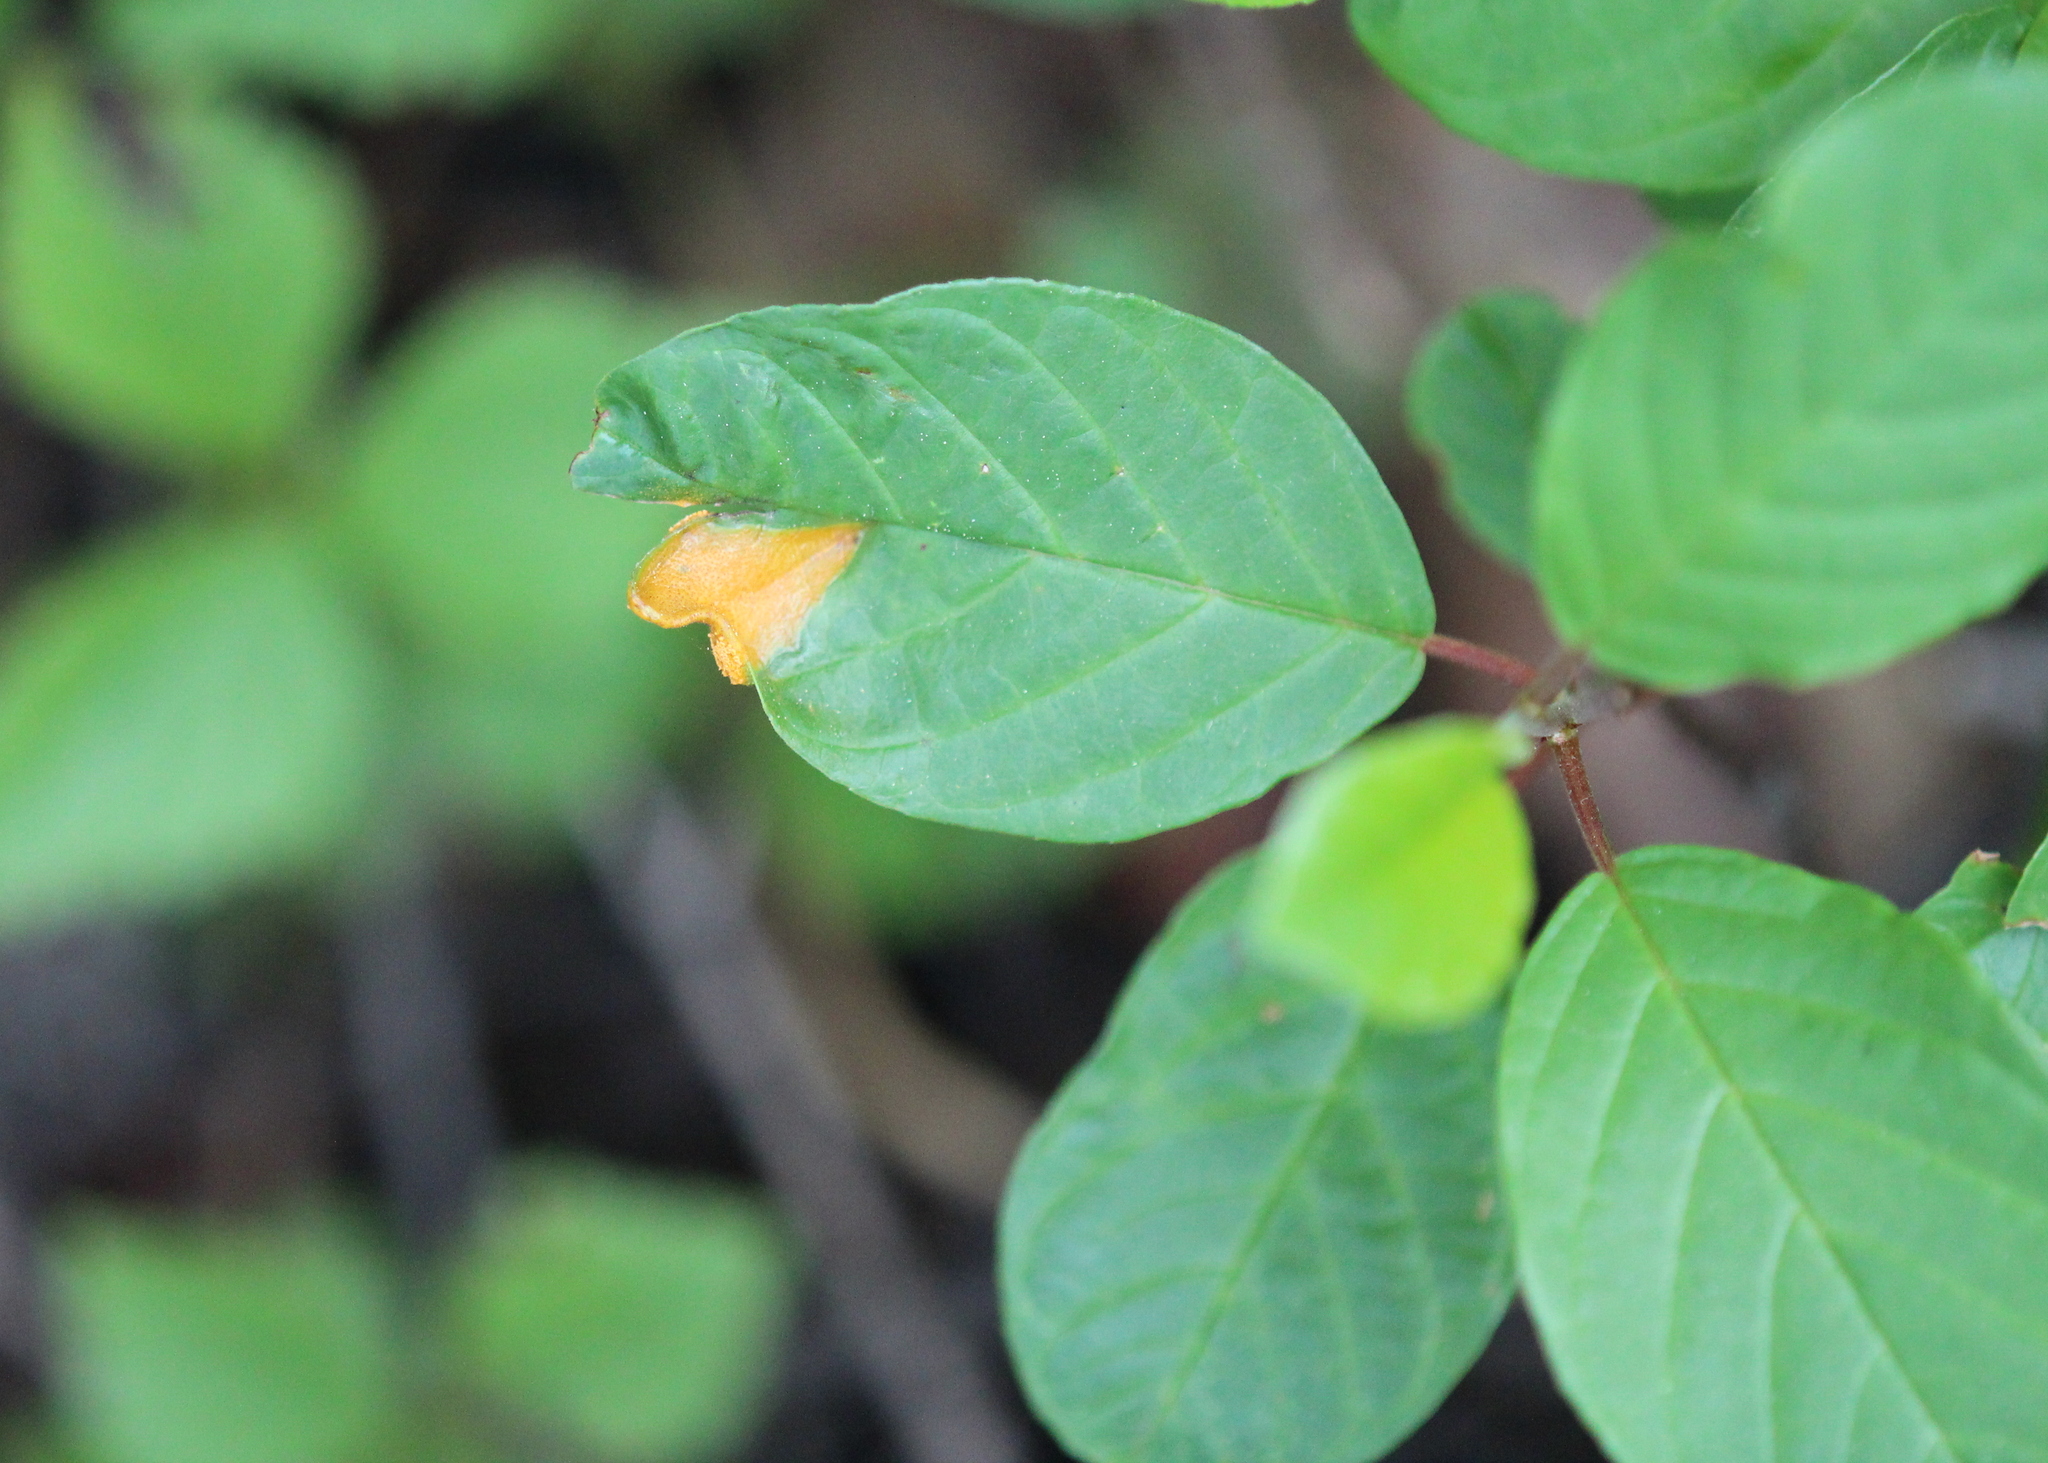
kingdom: Plantae
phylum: Tracheophyta
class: Magnoliopsida
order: Rosales
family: Rhamnaceae
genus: Frangula
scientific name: Frangula alnus
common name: Alder buckthorn
